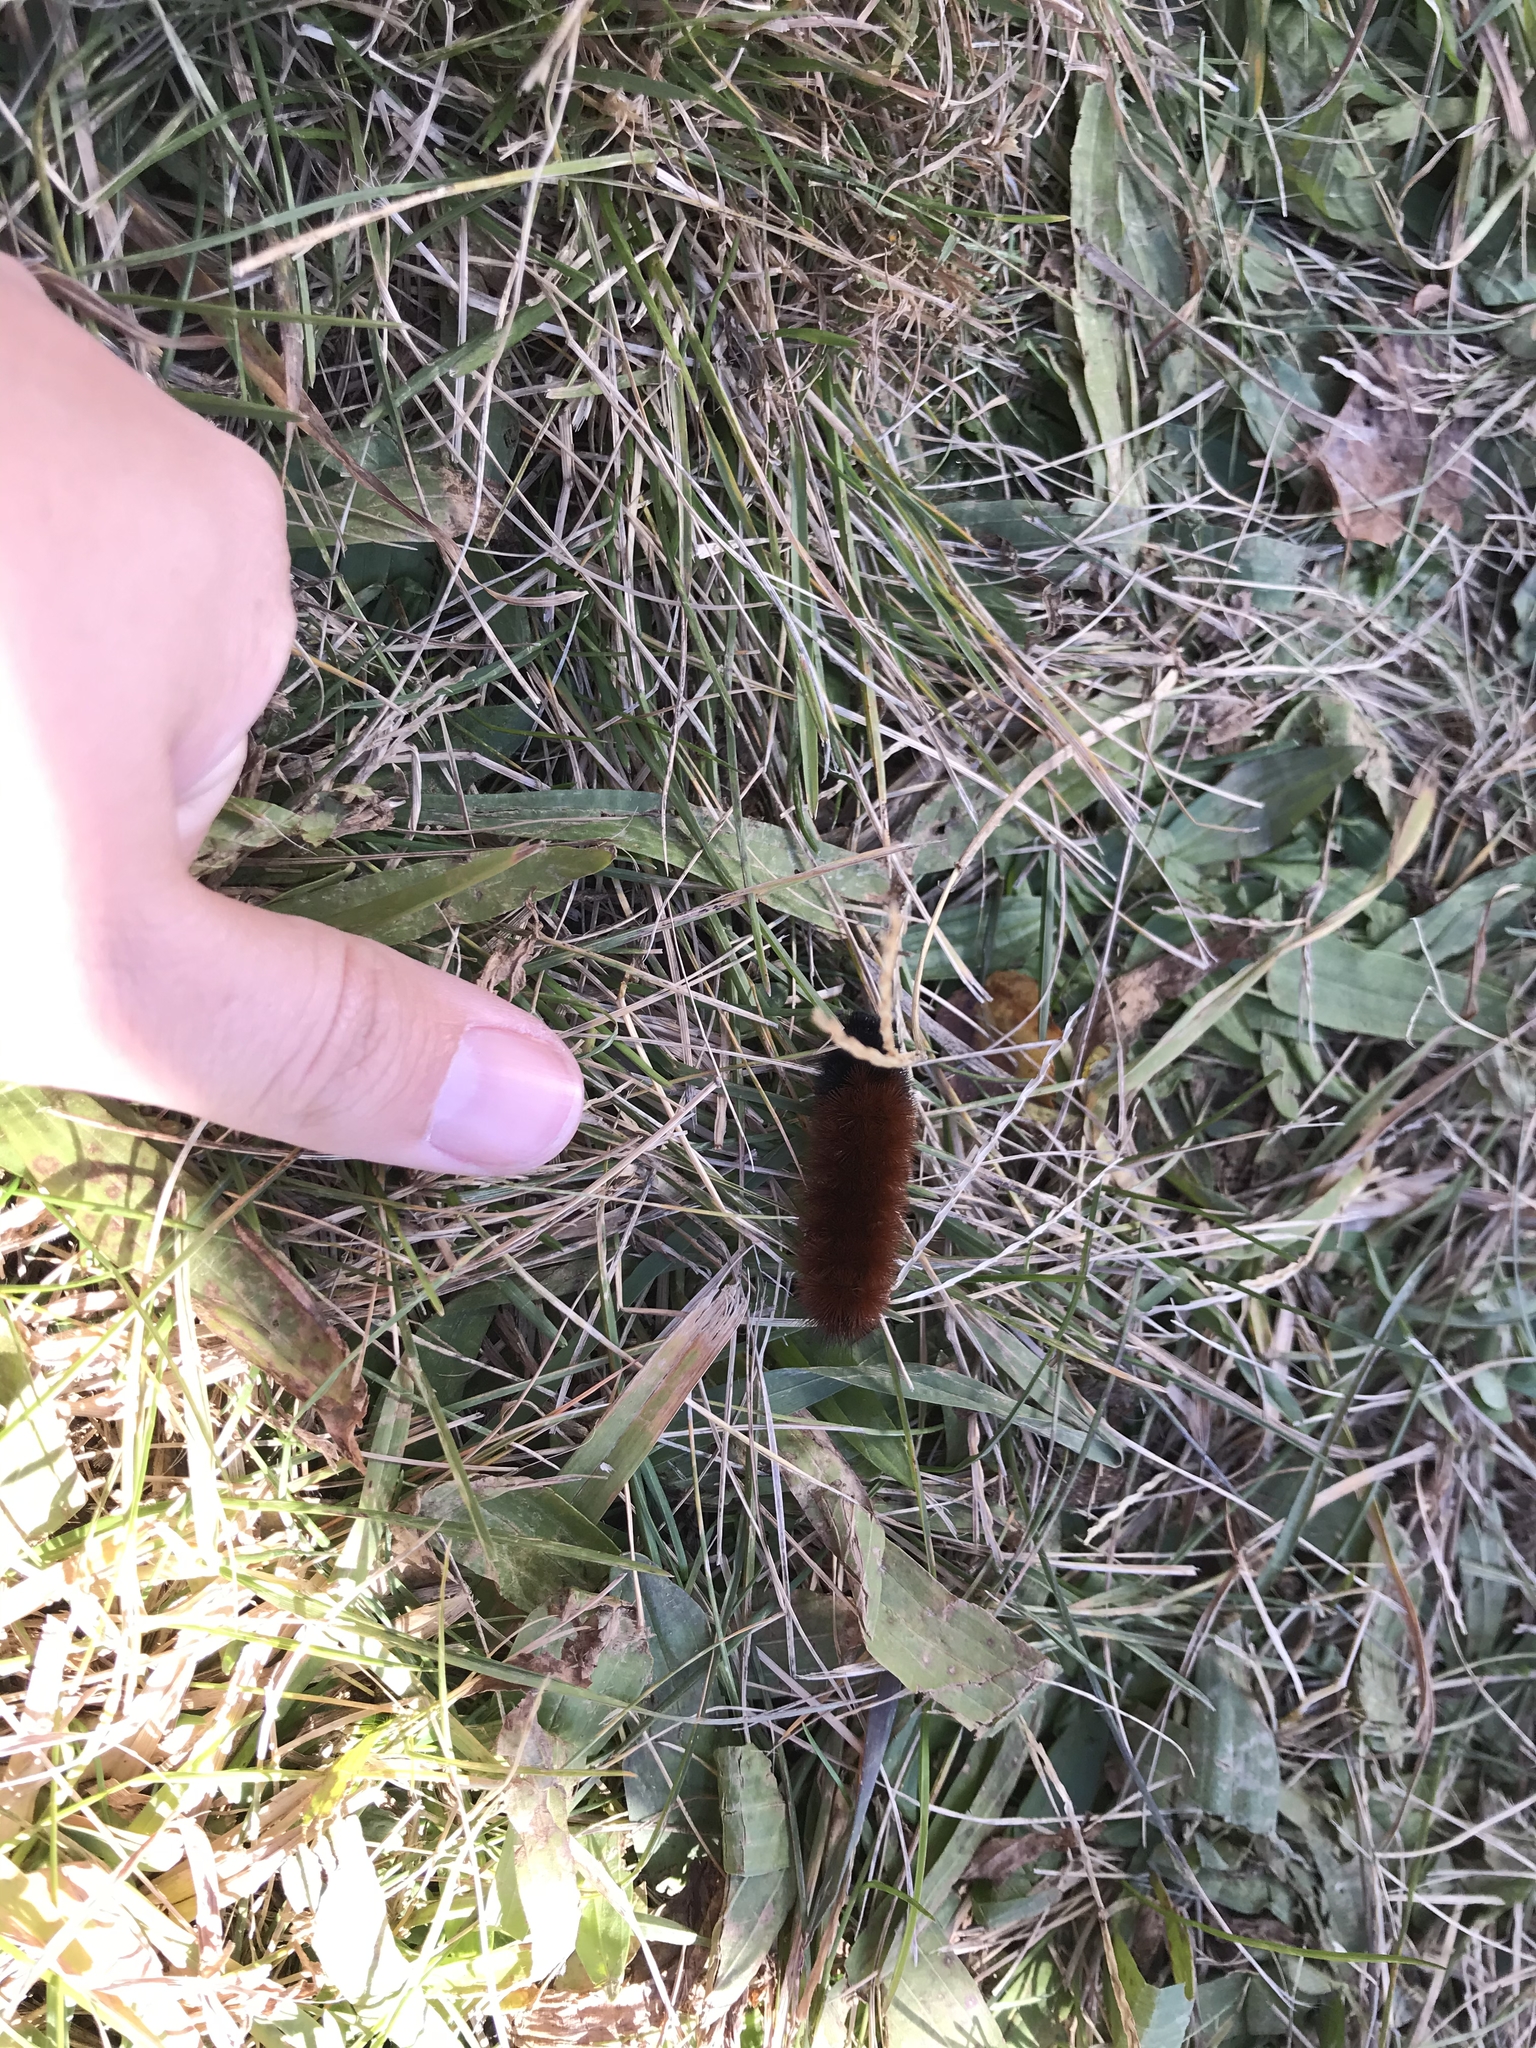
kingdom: Animalia
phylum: Arthropoda
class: Insecta
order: Lepidoptera
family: Erebidae
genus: Pyrrharctia
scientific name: Pyrrharctia isabella
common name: Isabella tiger moth
